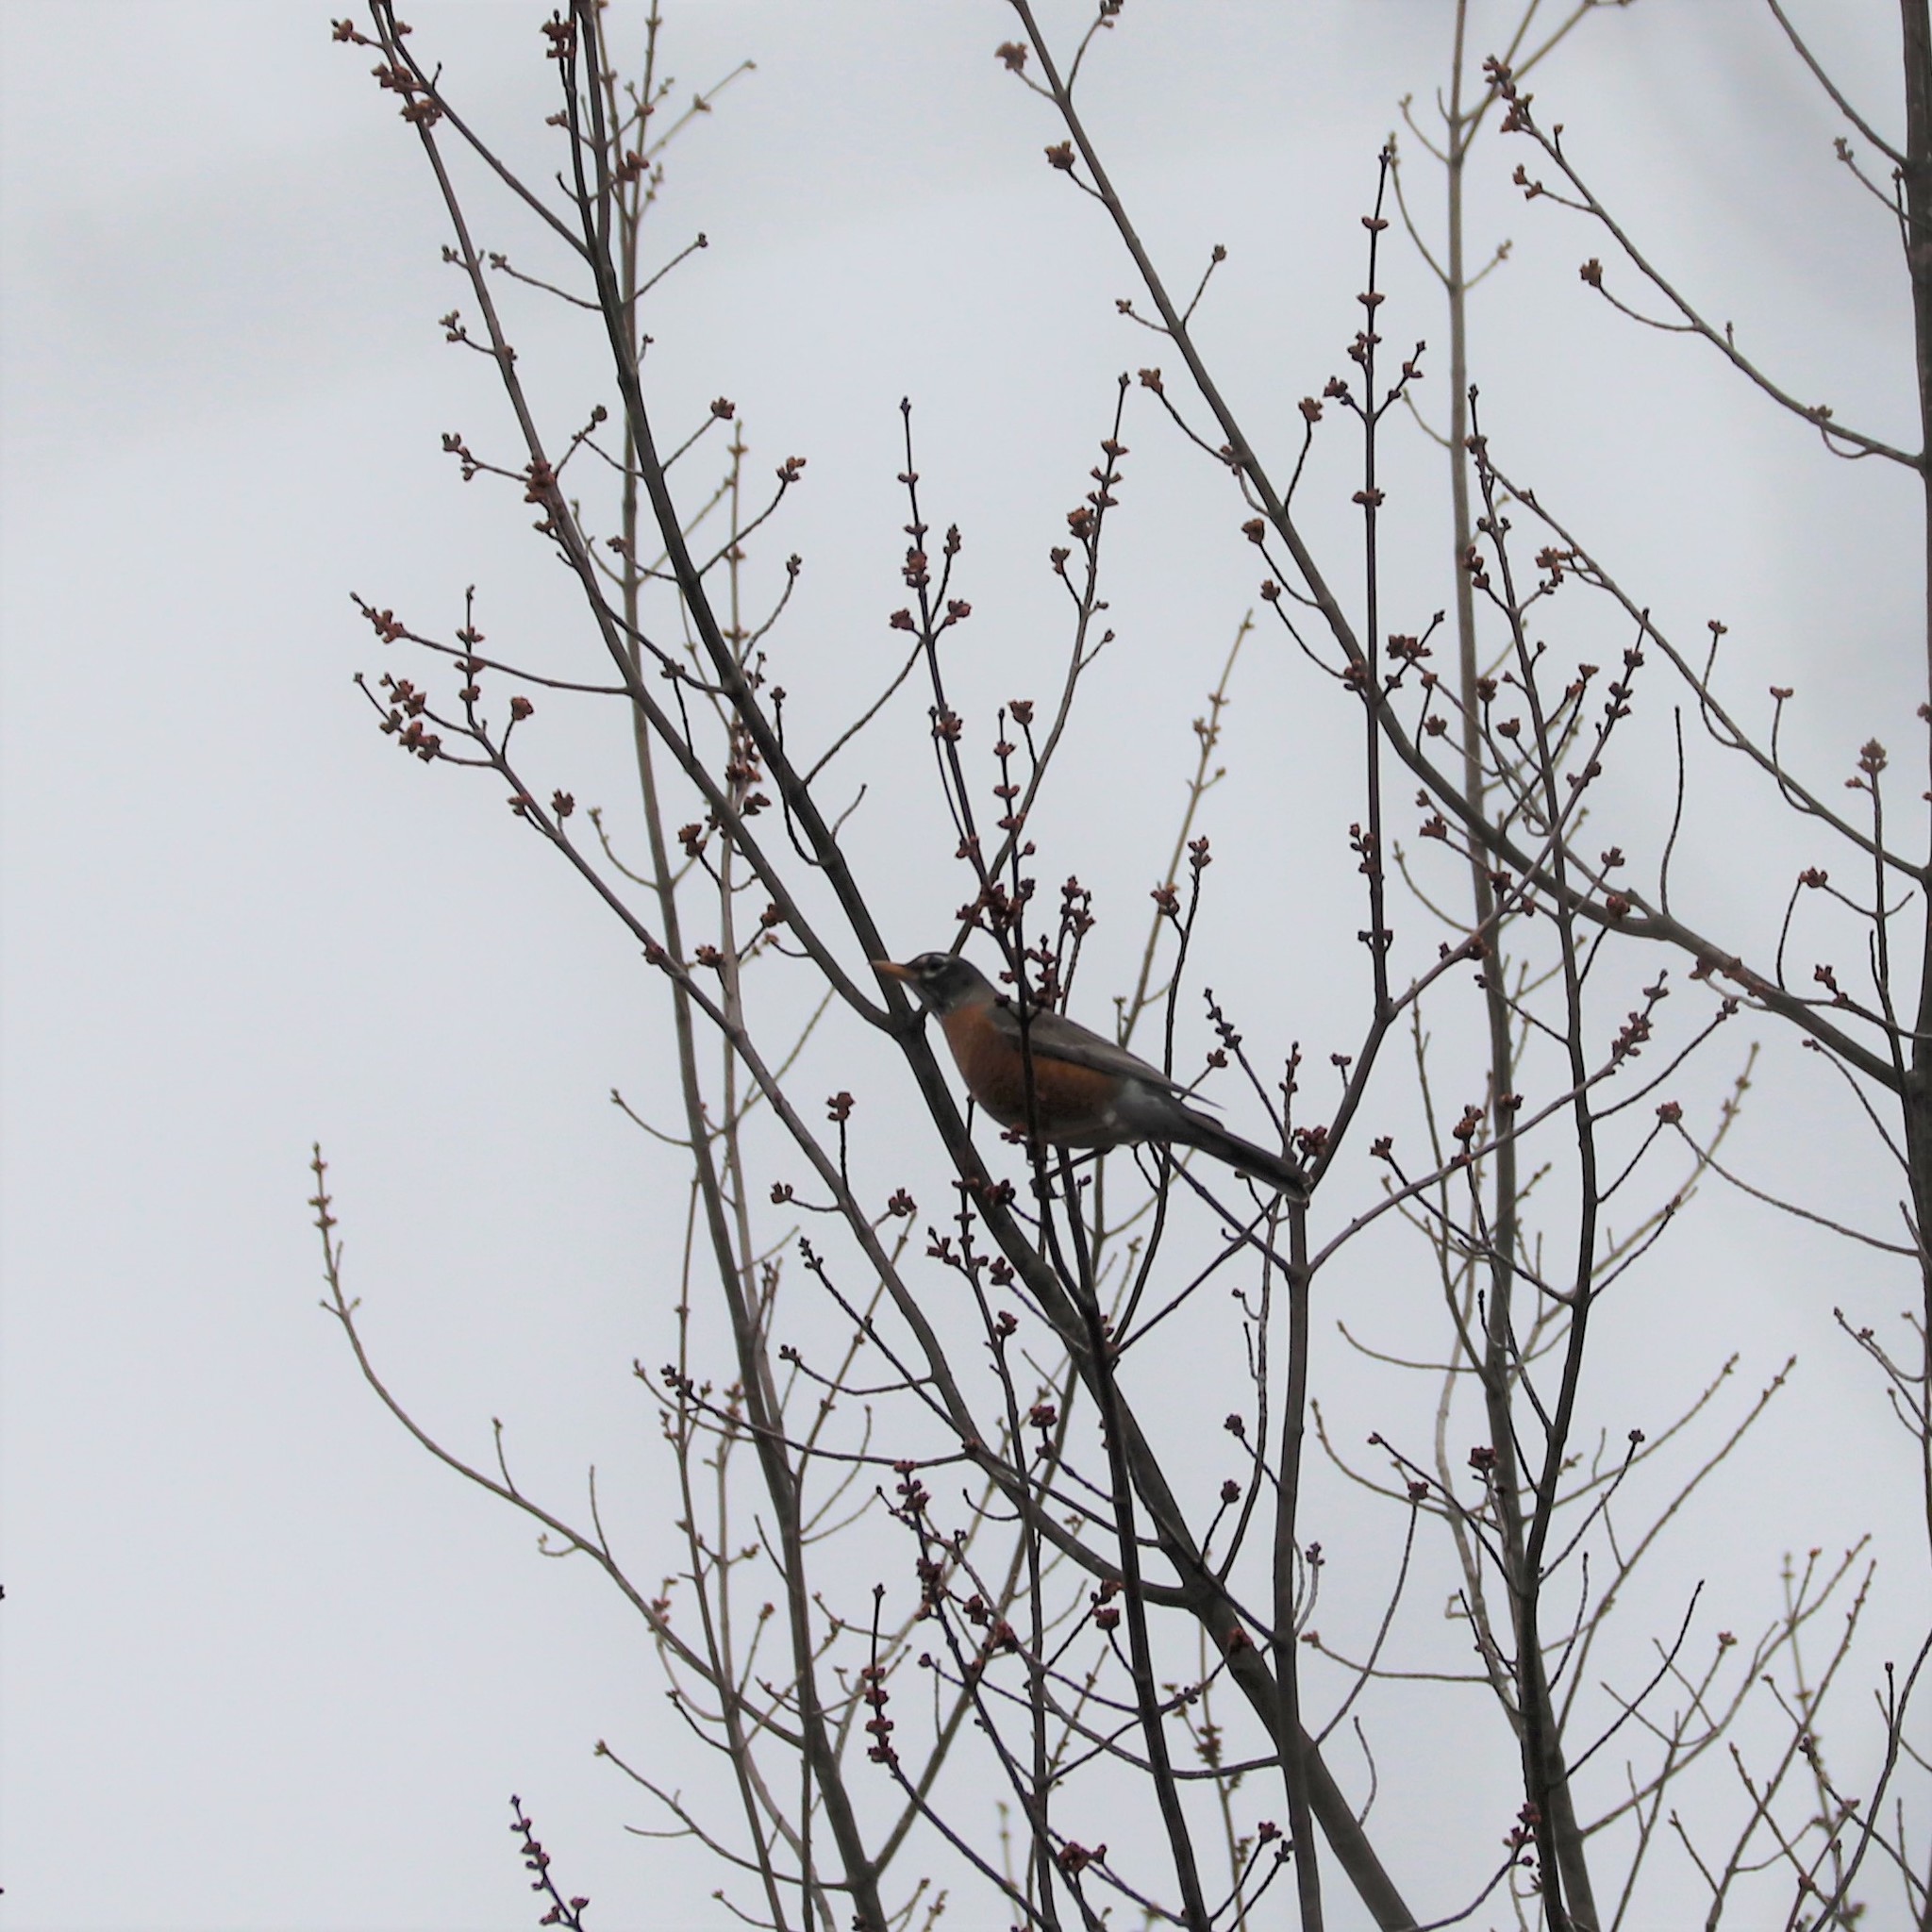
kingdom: Animalia
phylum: Chordata
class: Aves
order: Passeriformes
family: Turdidae
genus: Turdus
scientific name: Turdus migratorius
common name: American robin
